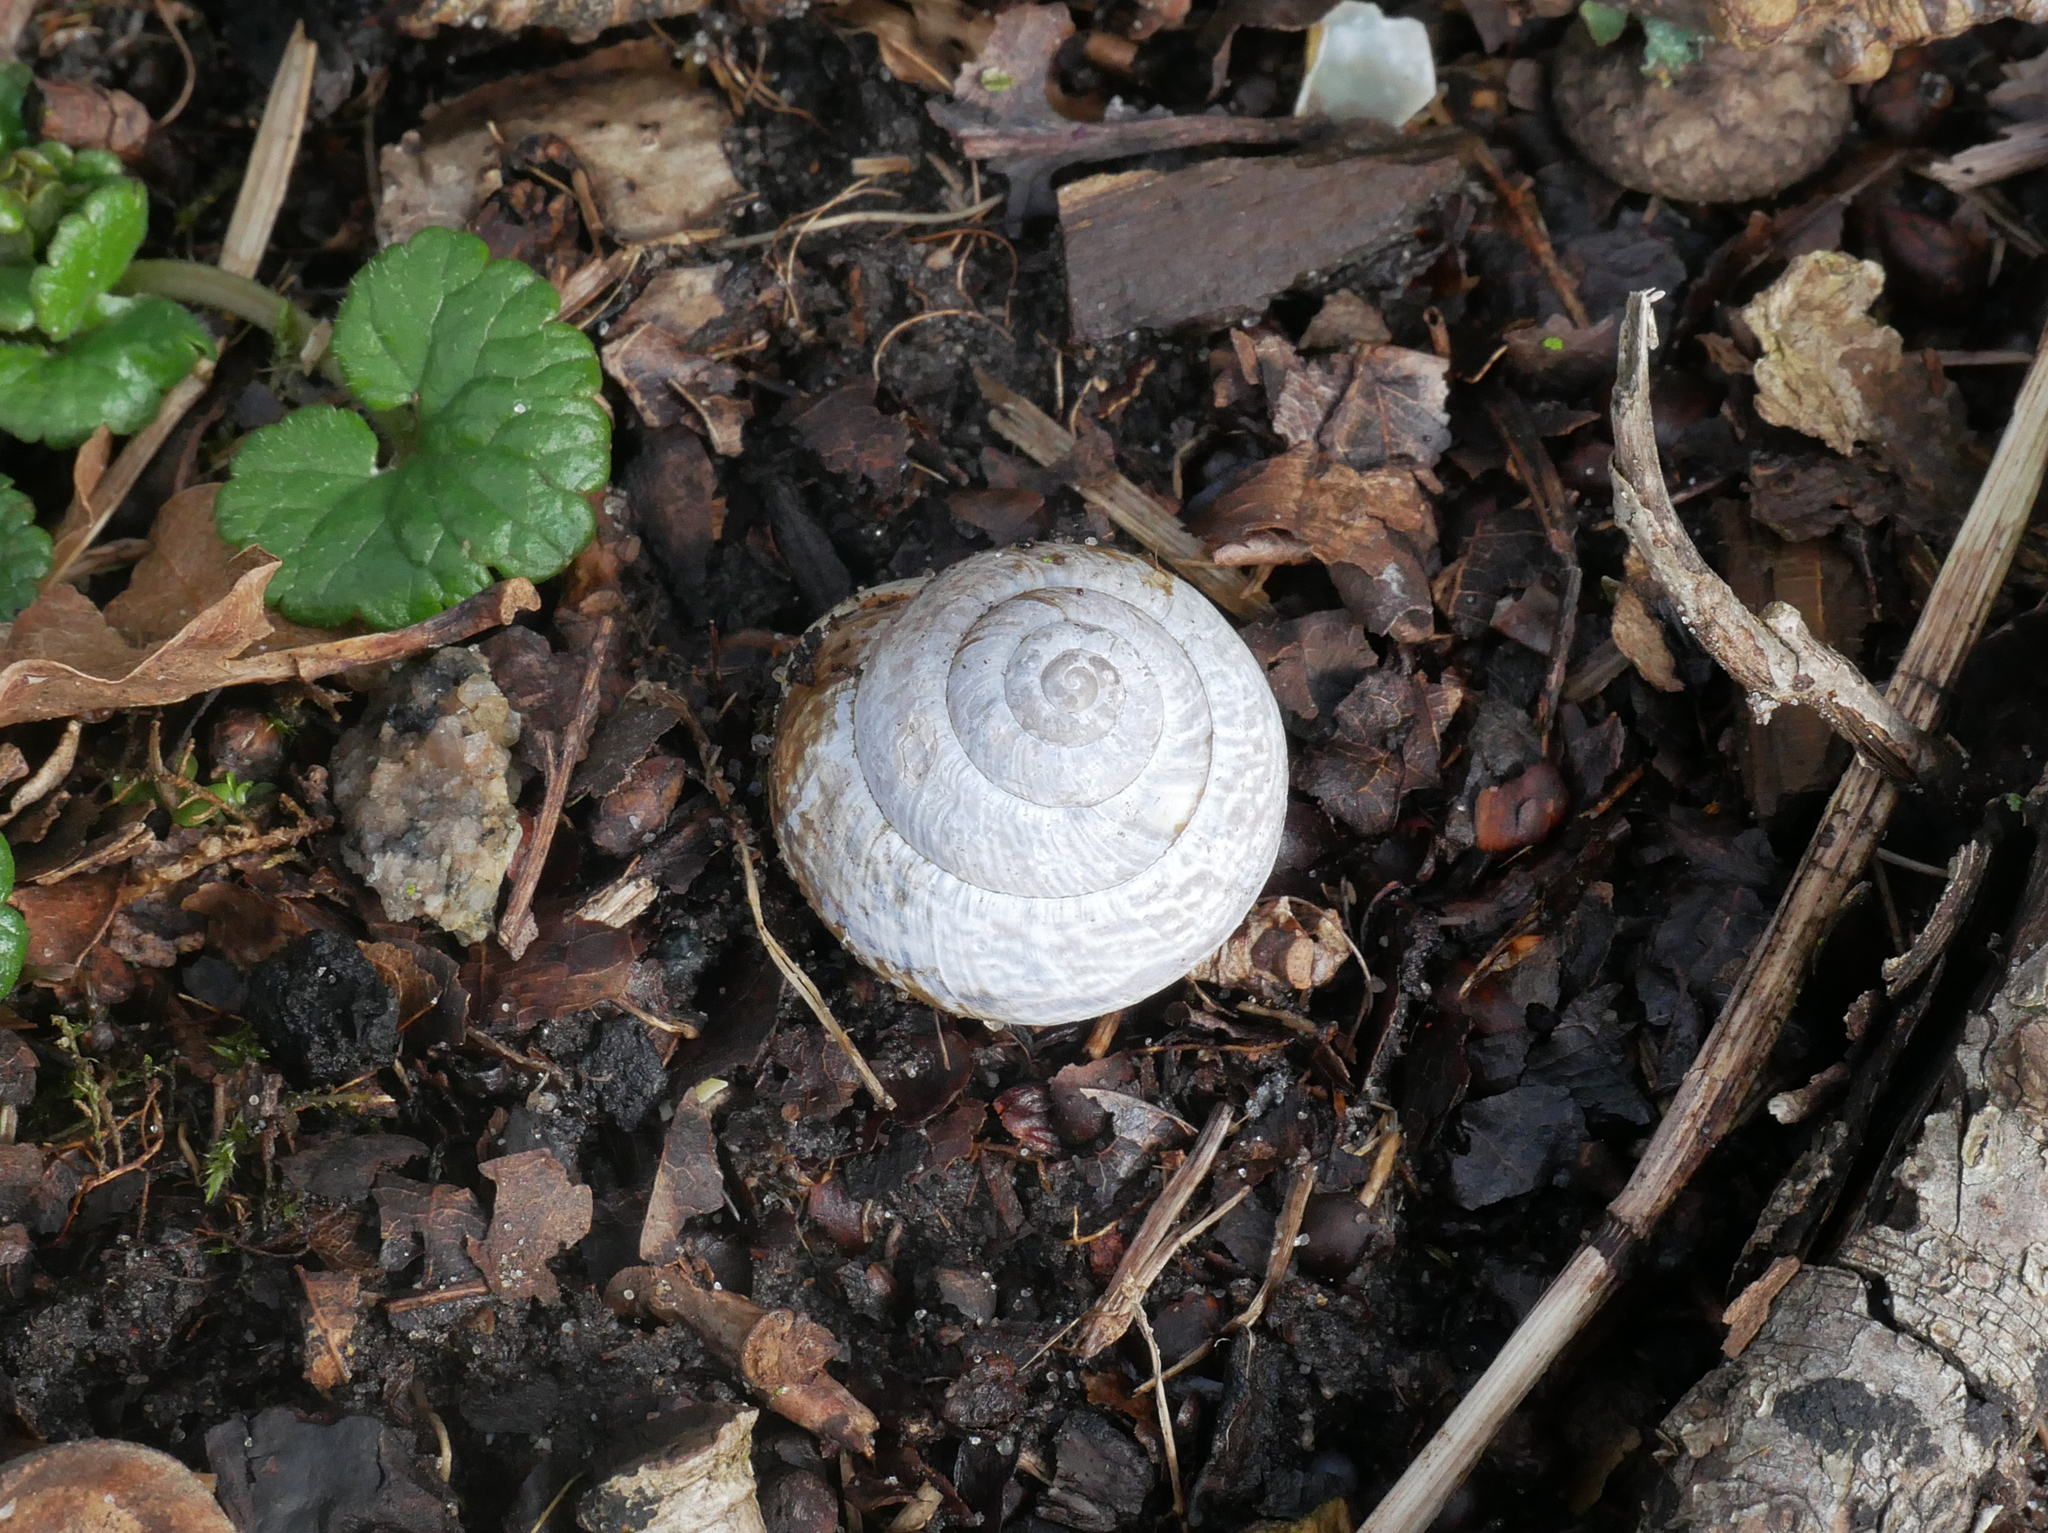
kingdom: Animalia
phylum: Mollusca
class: Gastropoda
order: Stylommatophora
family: Helicidae
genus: Arianta
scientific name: Arianta arbustorum
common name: Copse snail
